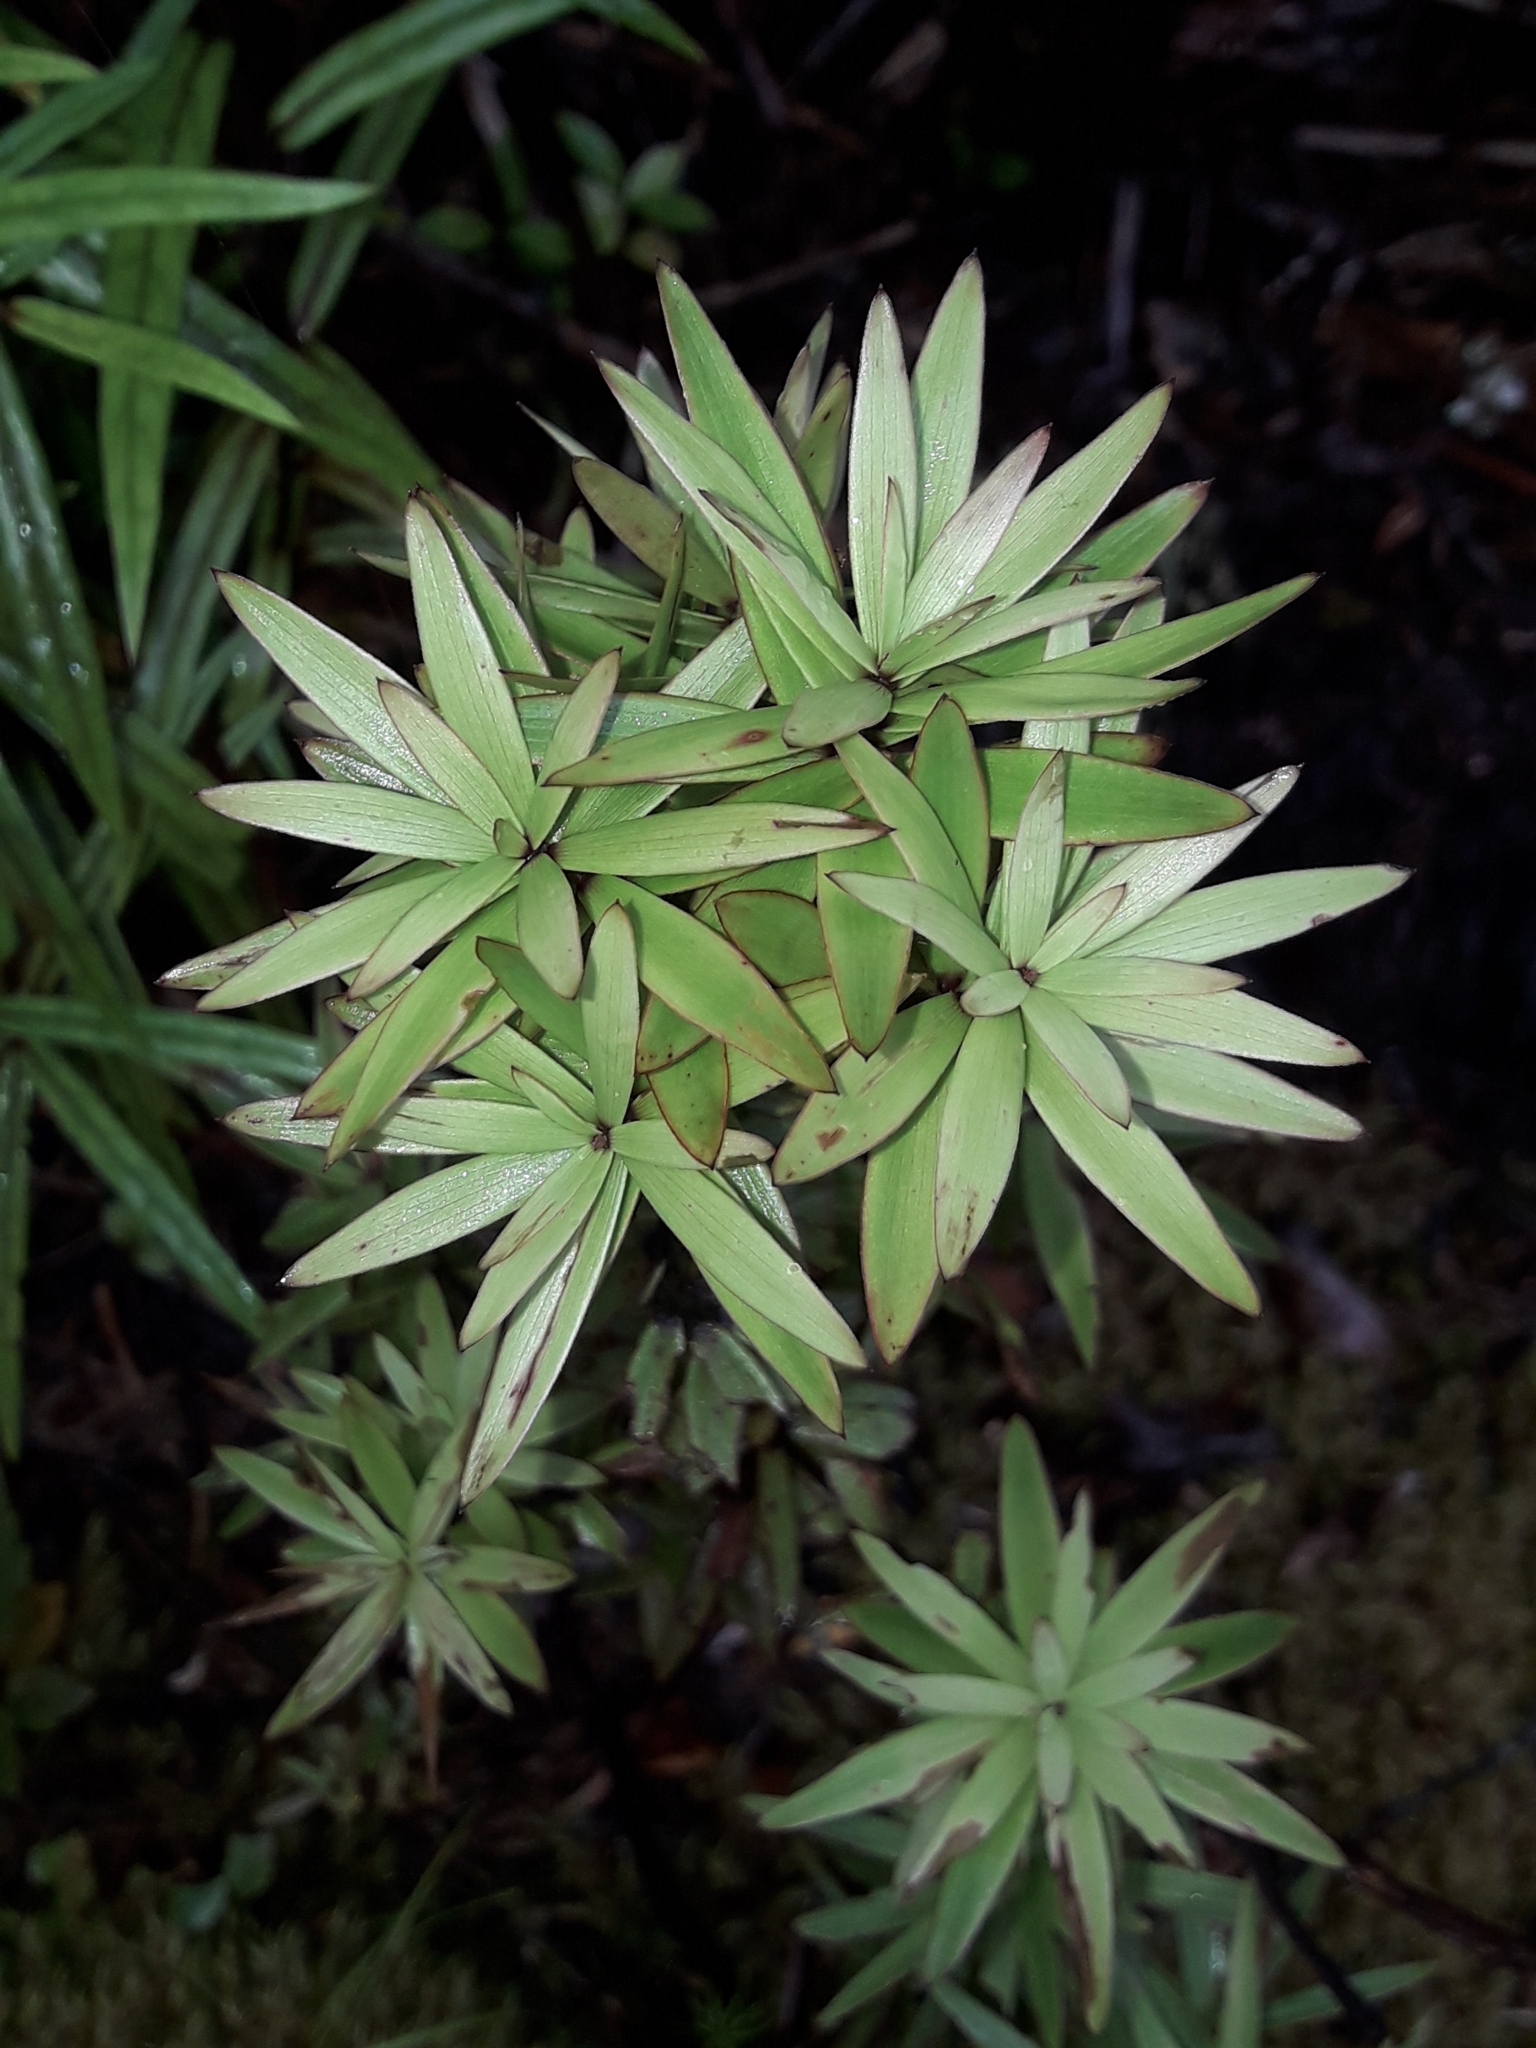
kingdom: Plantae
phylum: Tracheophyta
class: Magnoliopsida
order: Ericales
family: Ericaceae
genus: Leucopogon
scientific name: Leucopogon fasciculatus
